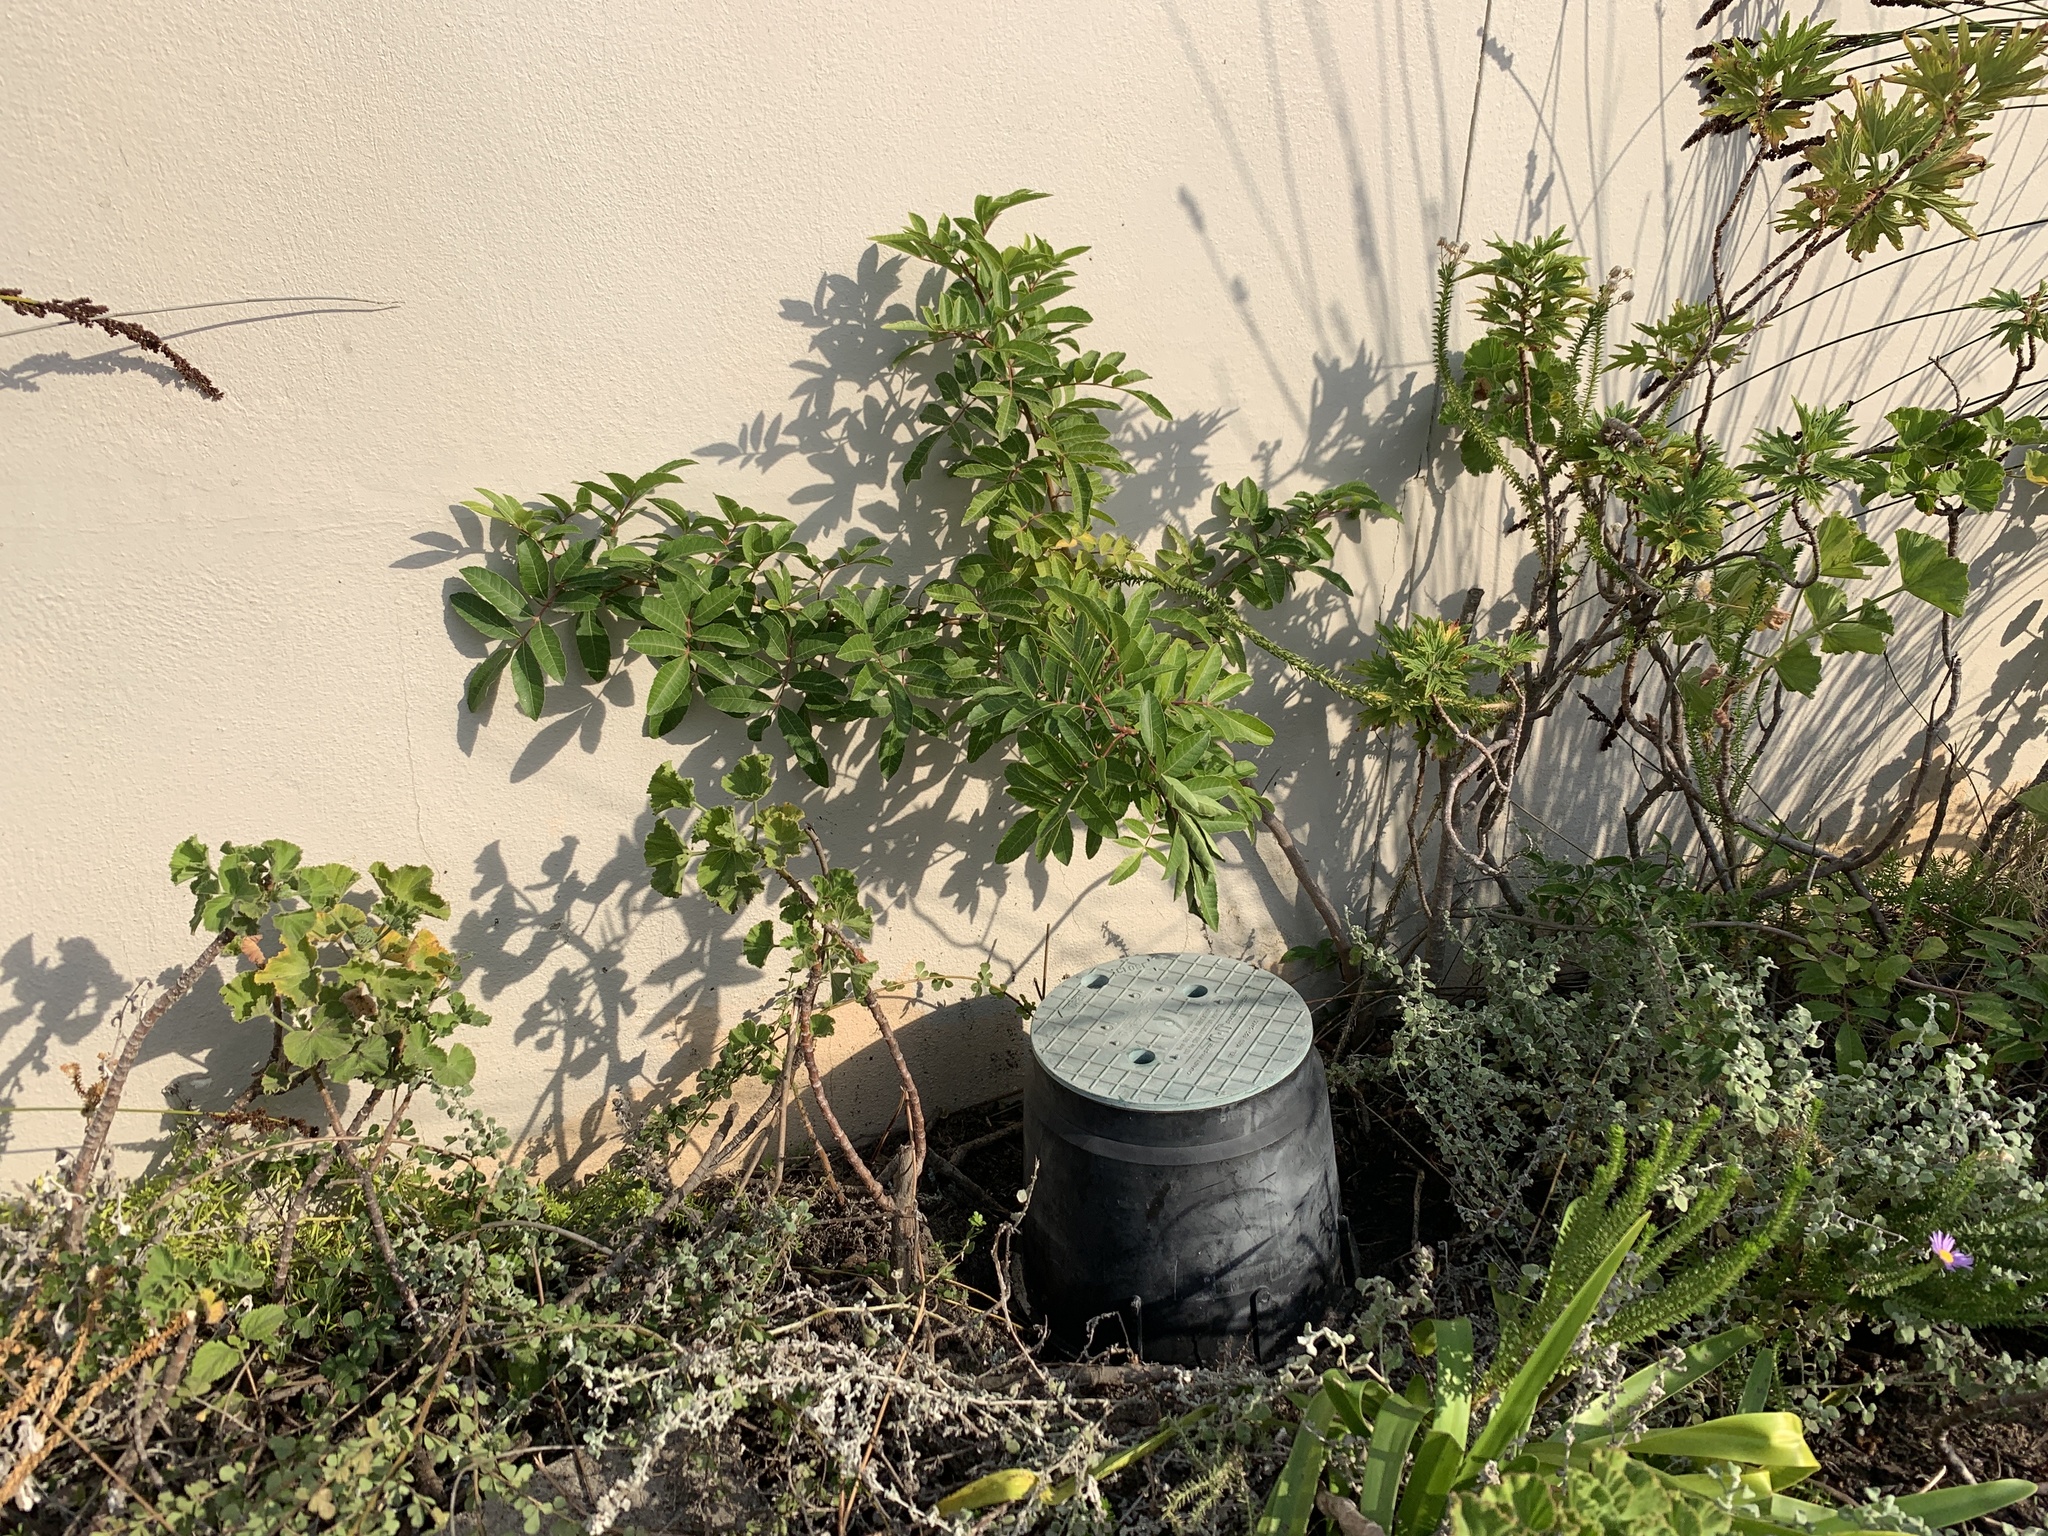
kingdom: Plantae
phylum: Tracheophyta
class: Magnoliopsida
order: Sapindales
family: Anacardiaceae
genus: Schinus
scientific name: Schinus terebinthifolia
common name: Brazilian peppertree
